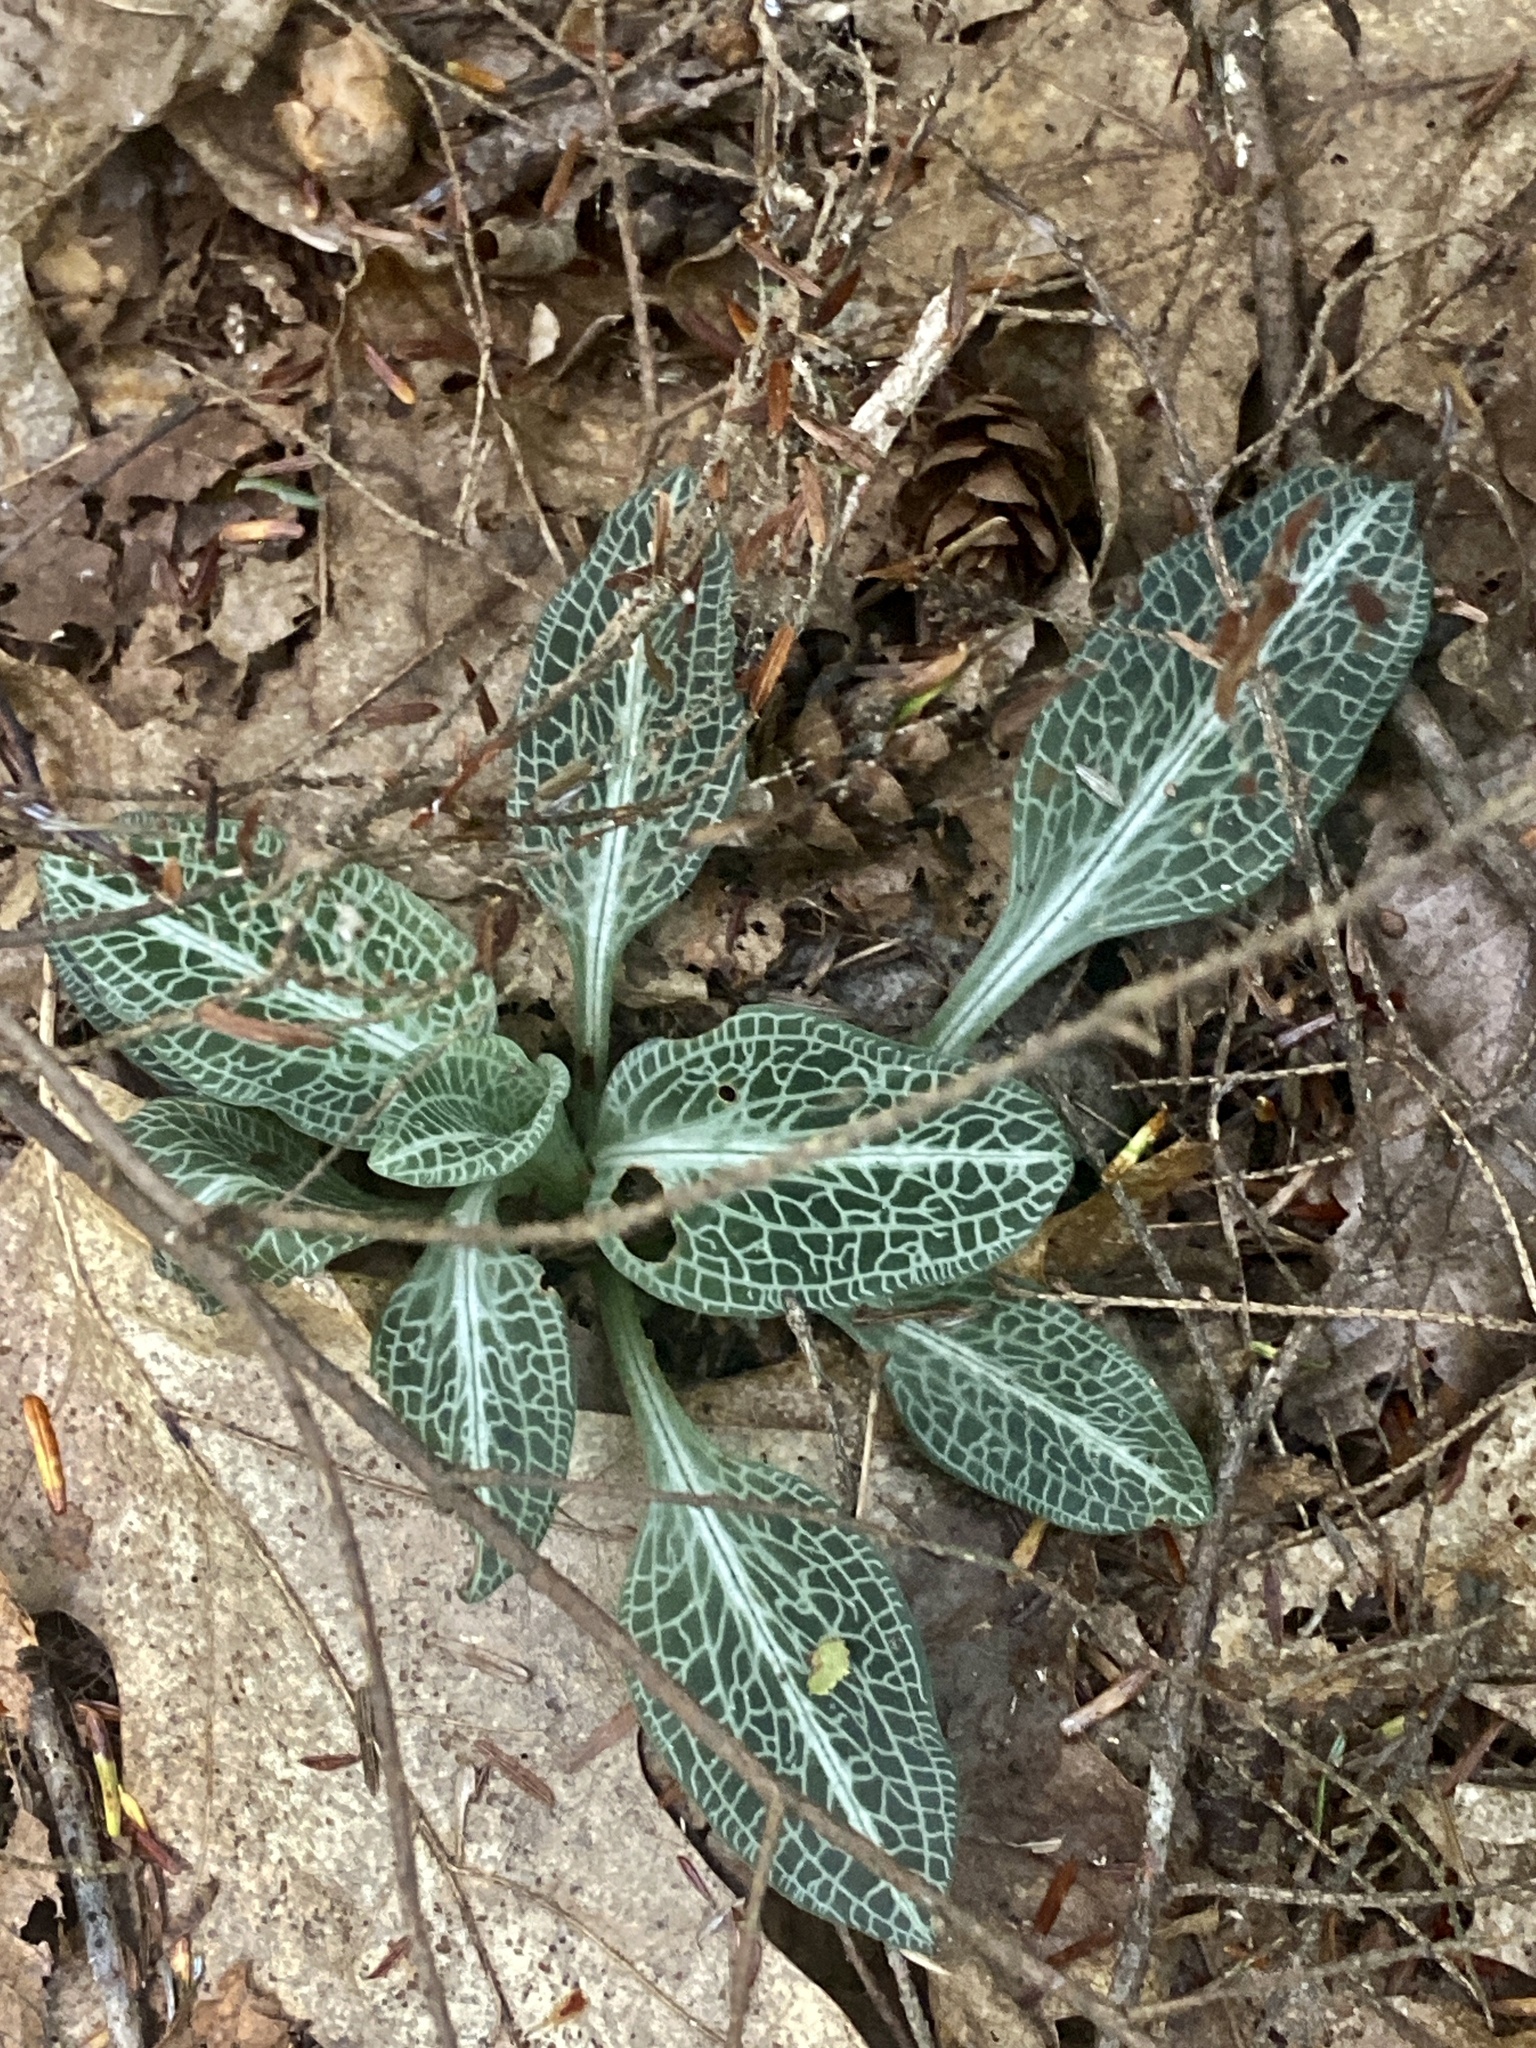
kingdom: Plantae
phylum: Tracheophyta
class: Liliopsida
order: Asparagales
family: Orchidaceae
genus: Goodyera
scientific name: Goodyera pubescens
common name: Downy rattlesnake-plantain
